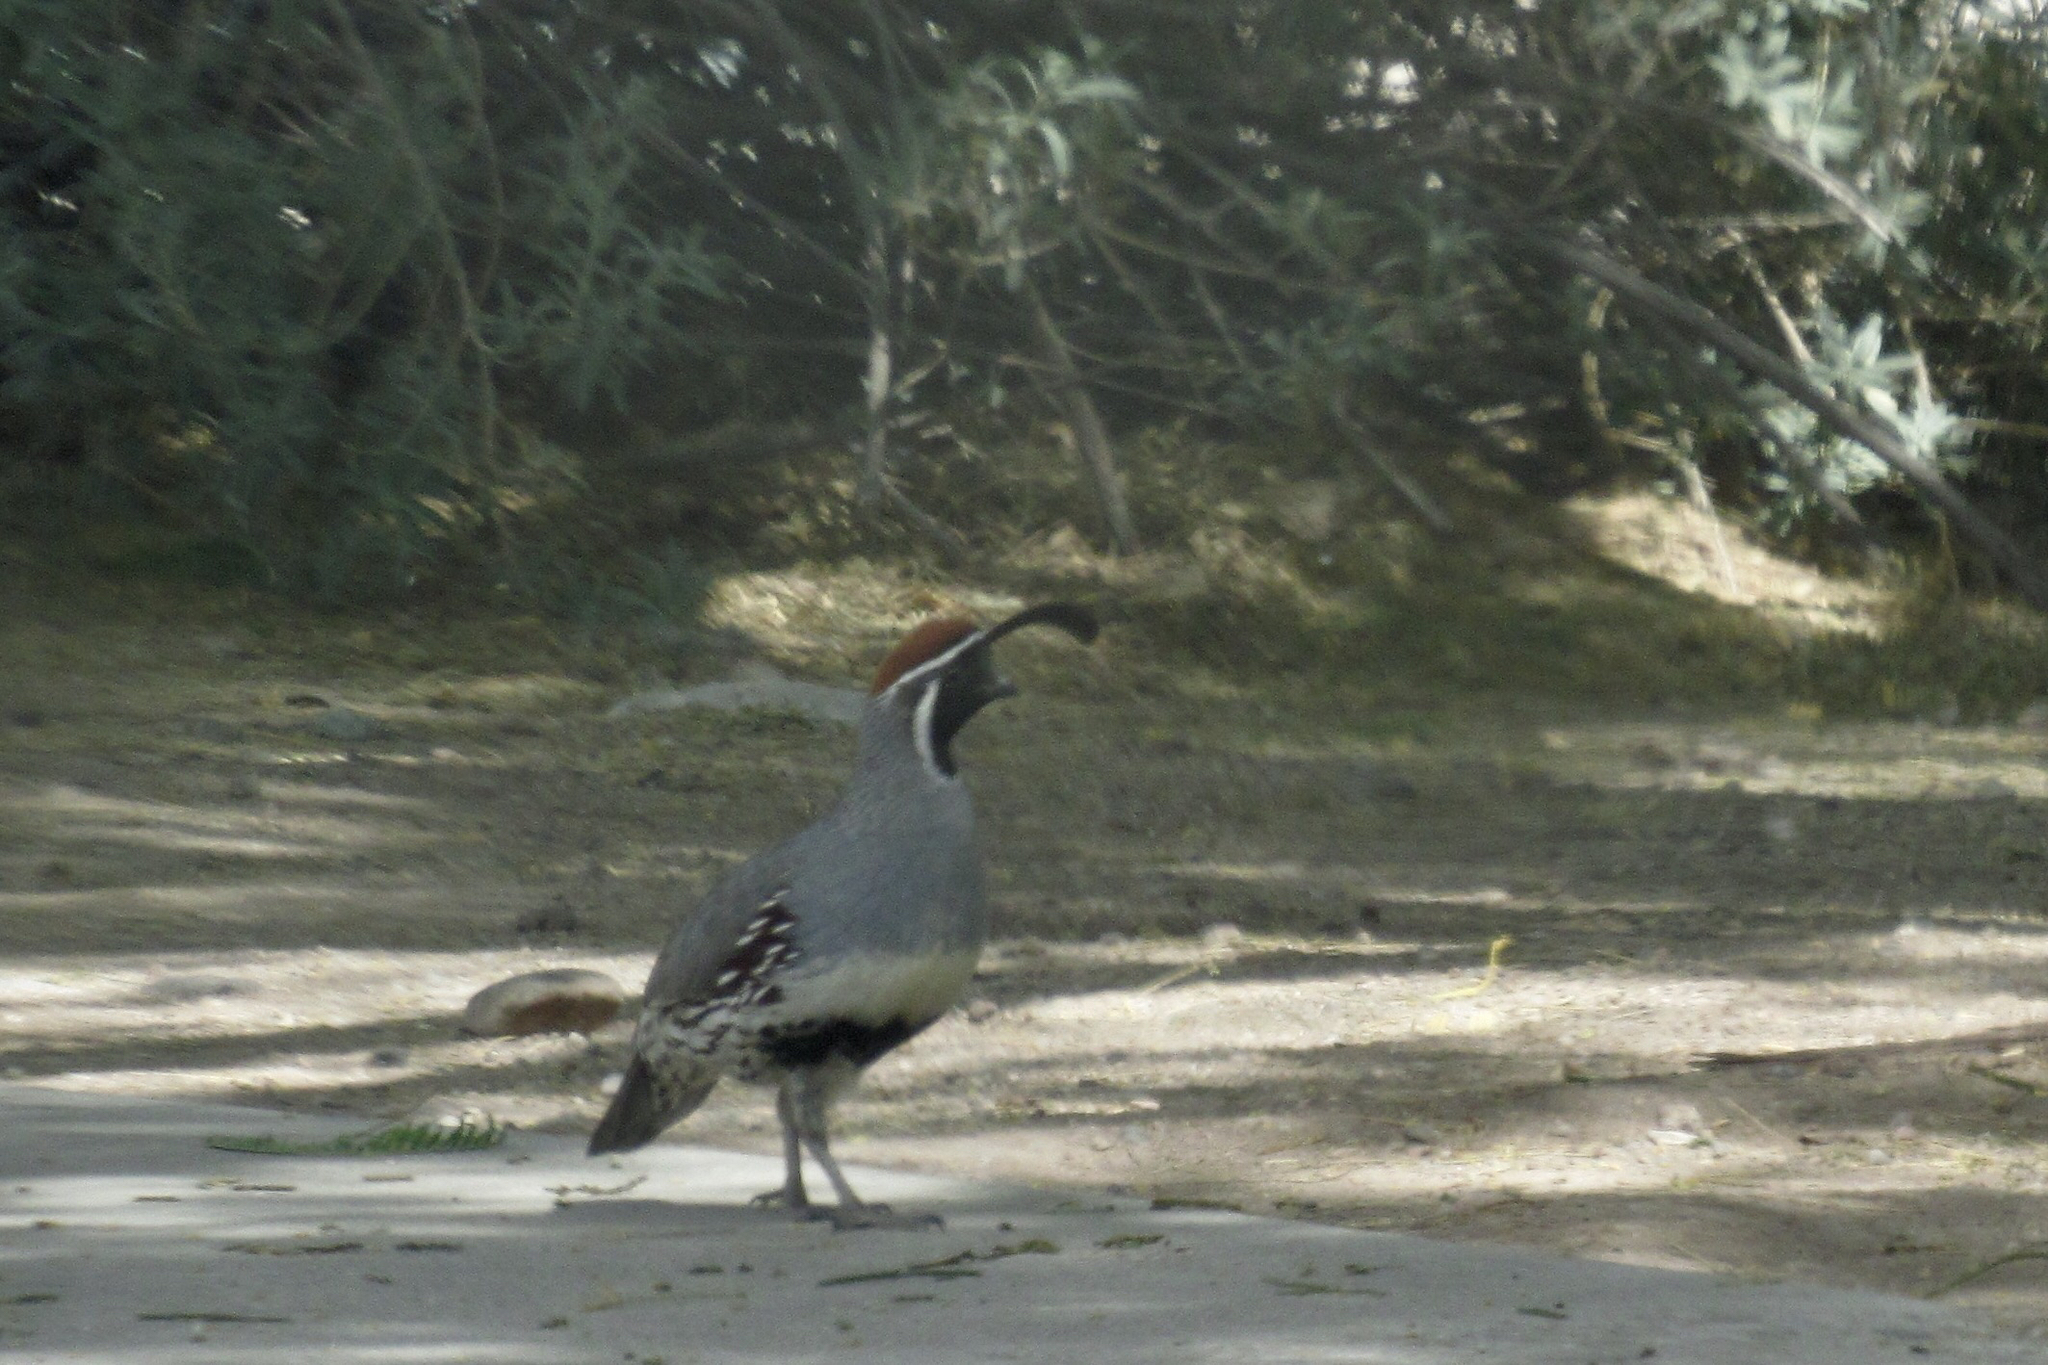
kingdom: Animalia
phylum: Chordata
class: Aves
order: Galliformes
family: Odontophoridae
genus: Callipepla
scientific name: Callipepla gambelii
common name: Gambel's quail
